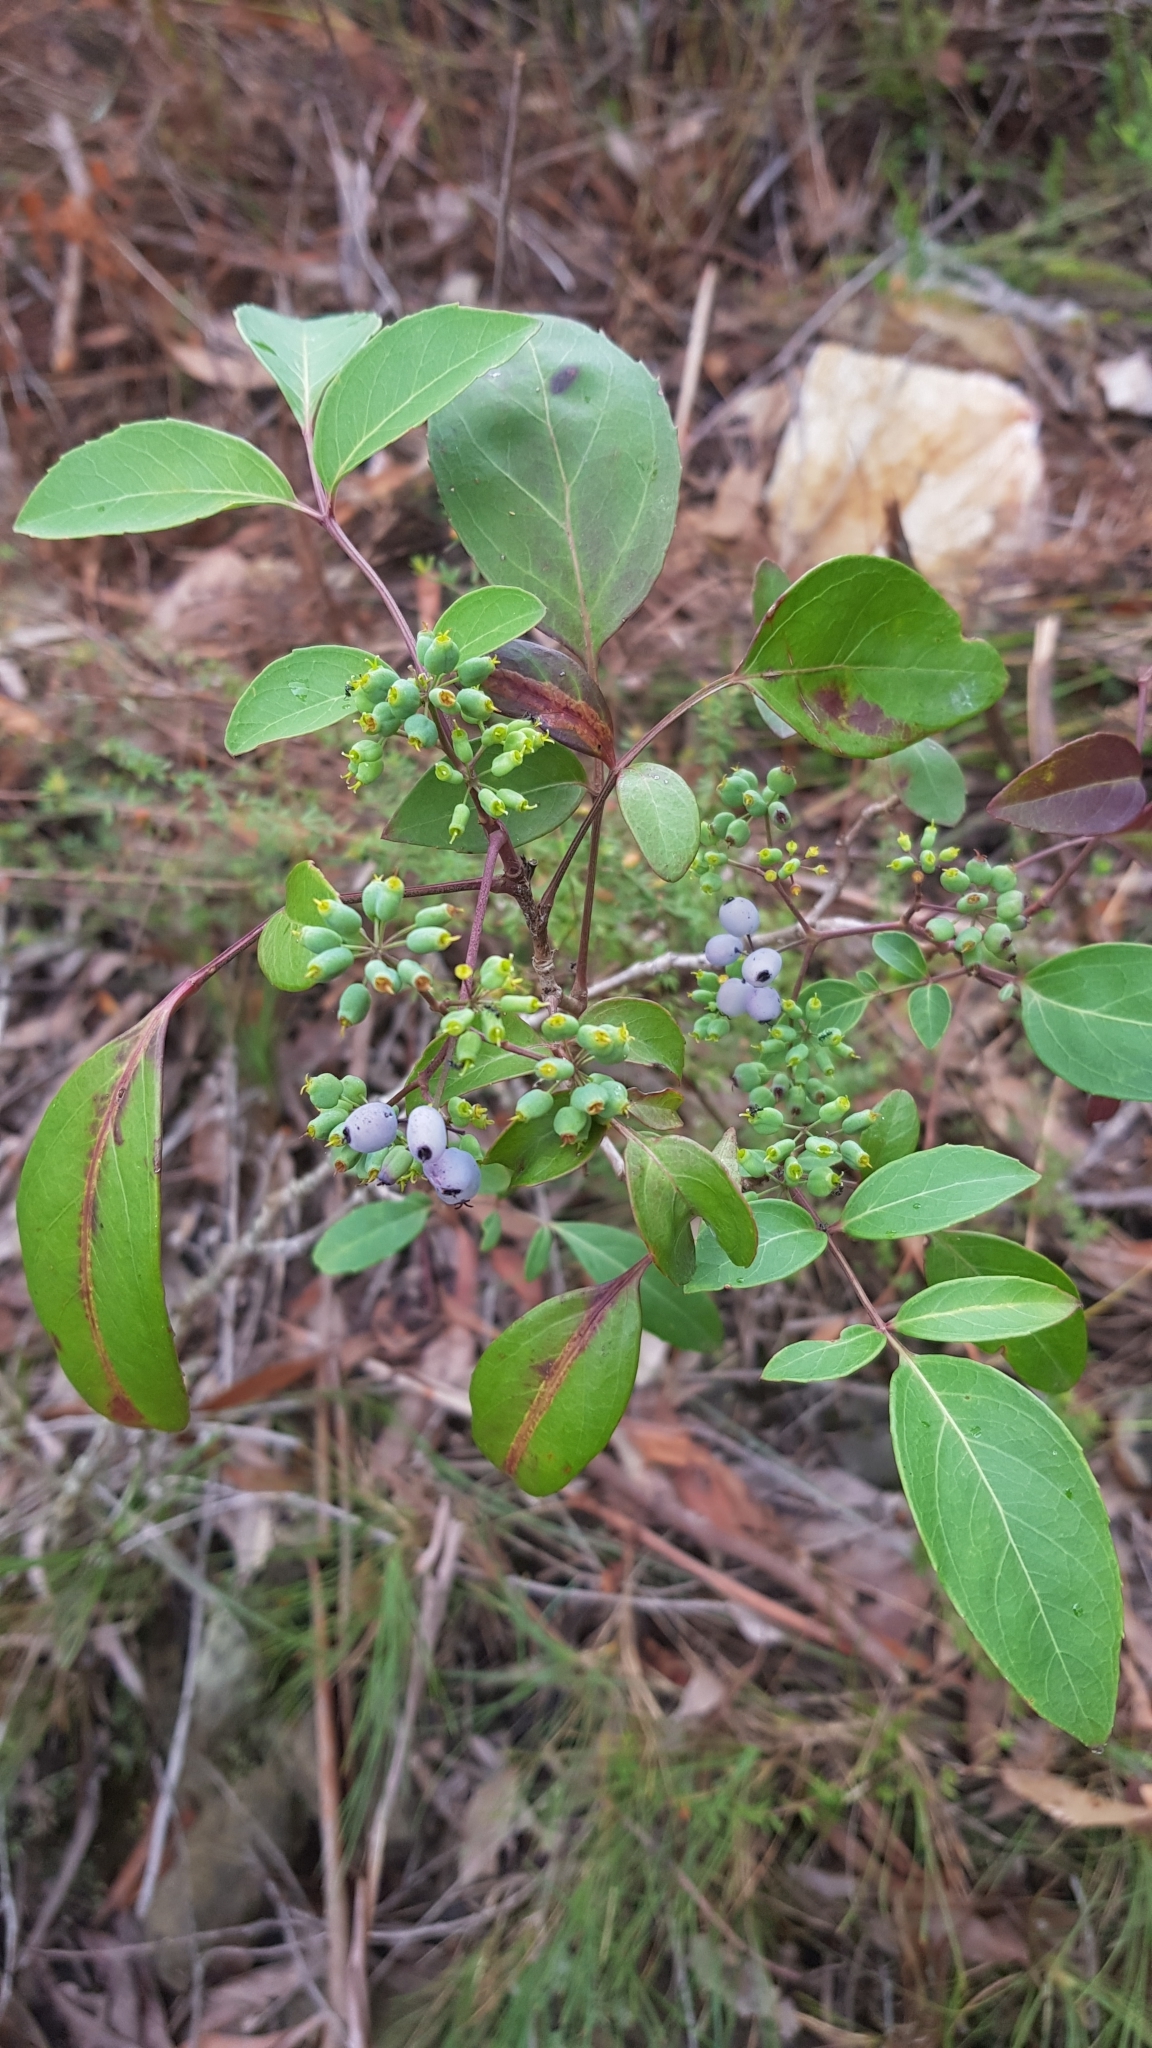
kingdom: Plantae
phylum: Tracheophyta
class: Magnoliopsida
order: Apiales
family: Araliaceae
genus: Polyscias
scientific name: Polyscias sambucifolia
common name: Elderberry-ash
